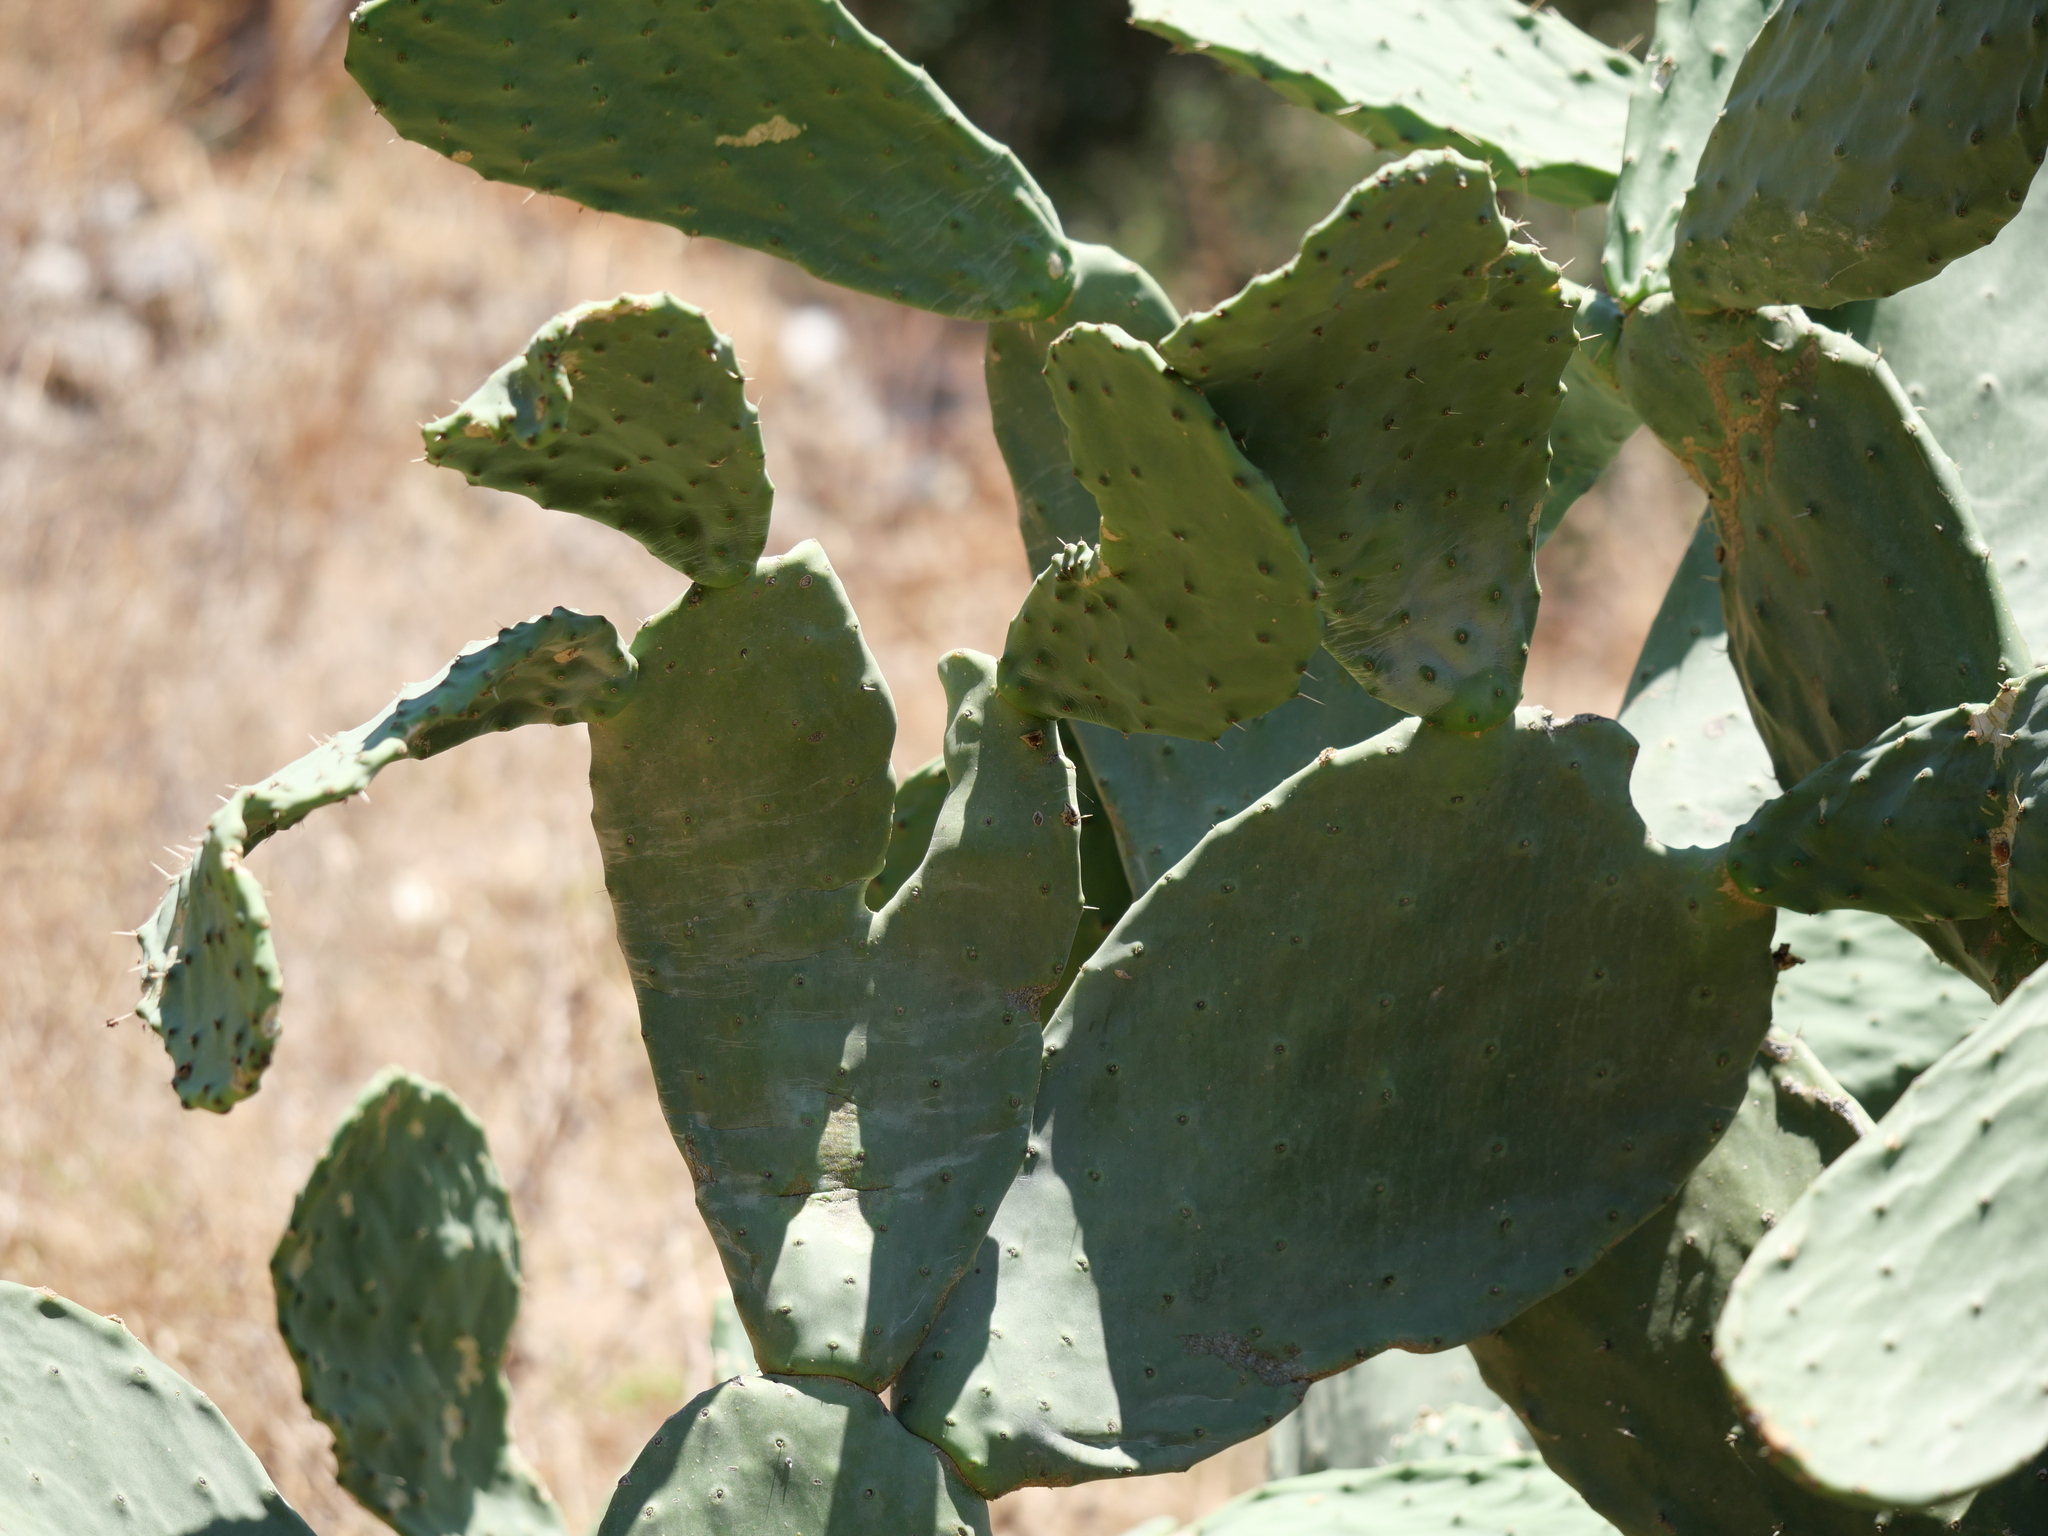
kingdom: Plantae
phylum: Tracheophyta
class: Magnoliopsida
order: Caryophyllales
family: Cactaceae
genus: Opuntia
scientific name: Opuntia ficus-indica
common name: Barbary fig
